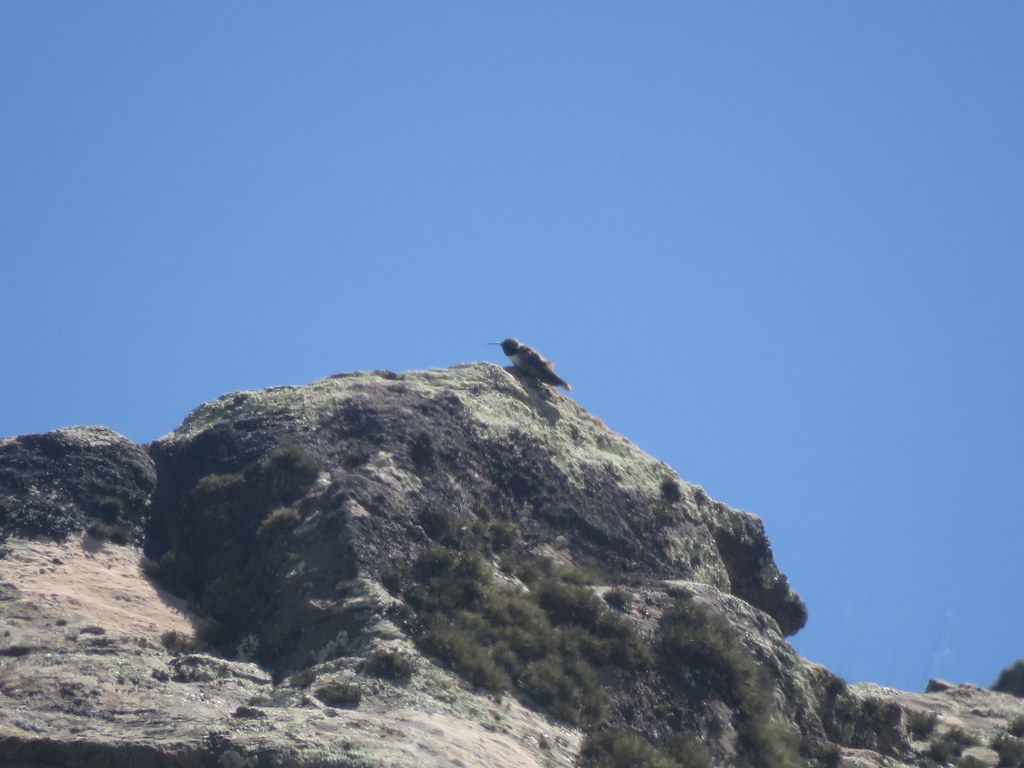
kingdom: Animalia
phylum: Chordata
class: Aves
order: Apodiformes
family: Trochilidae
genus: Oreotrochilus
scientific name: Oreotrochilus leucopleurus
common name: White-sided hillstar
